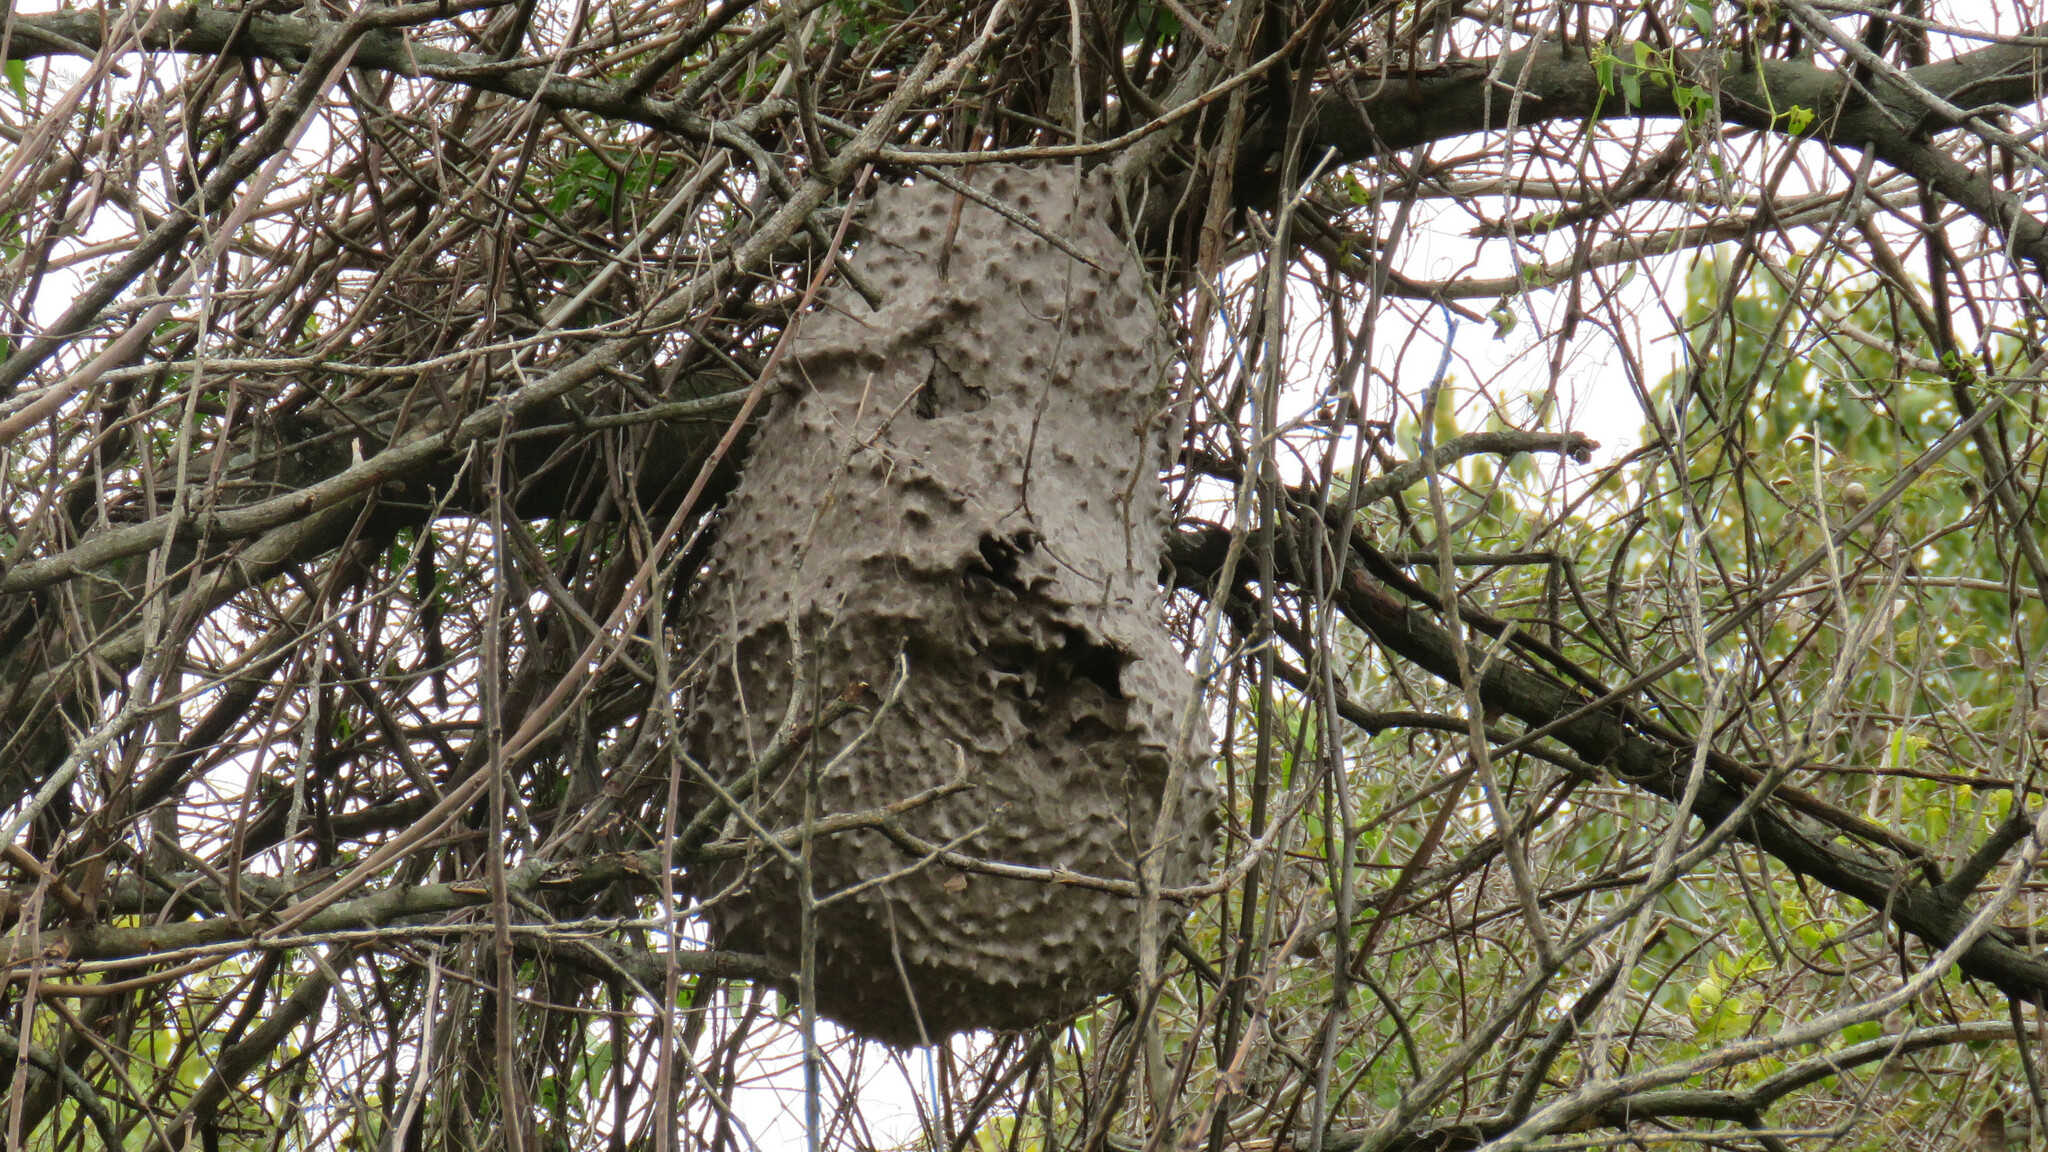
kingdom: Animalia
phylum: Arthropoda
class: Insecta
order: Hymenoptera
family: Eumenidae
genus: Polybia
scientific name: Polybia scutellaris
